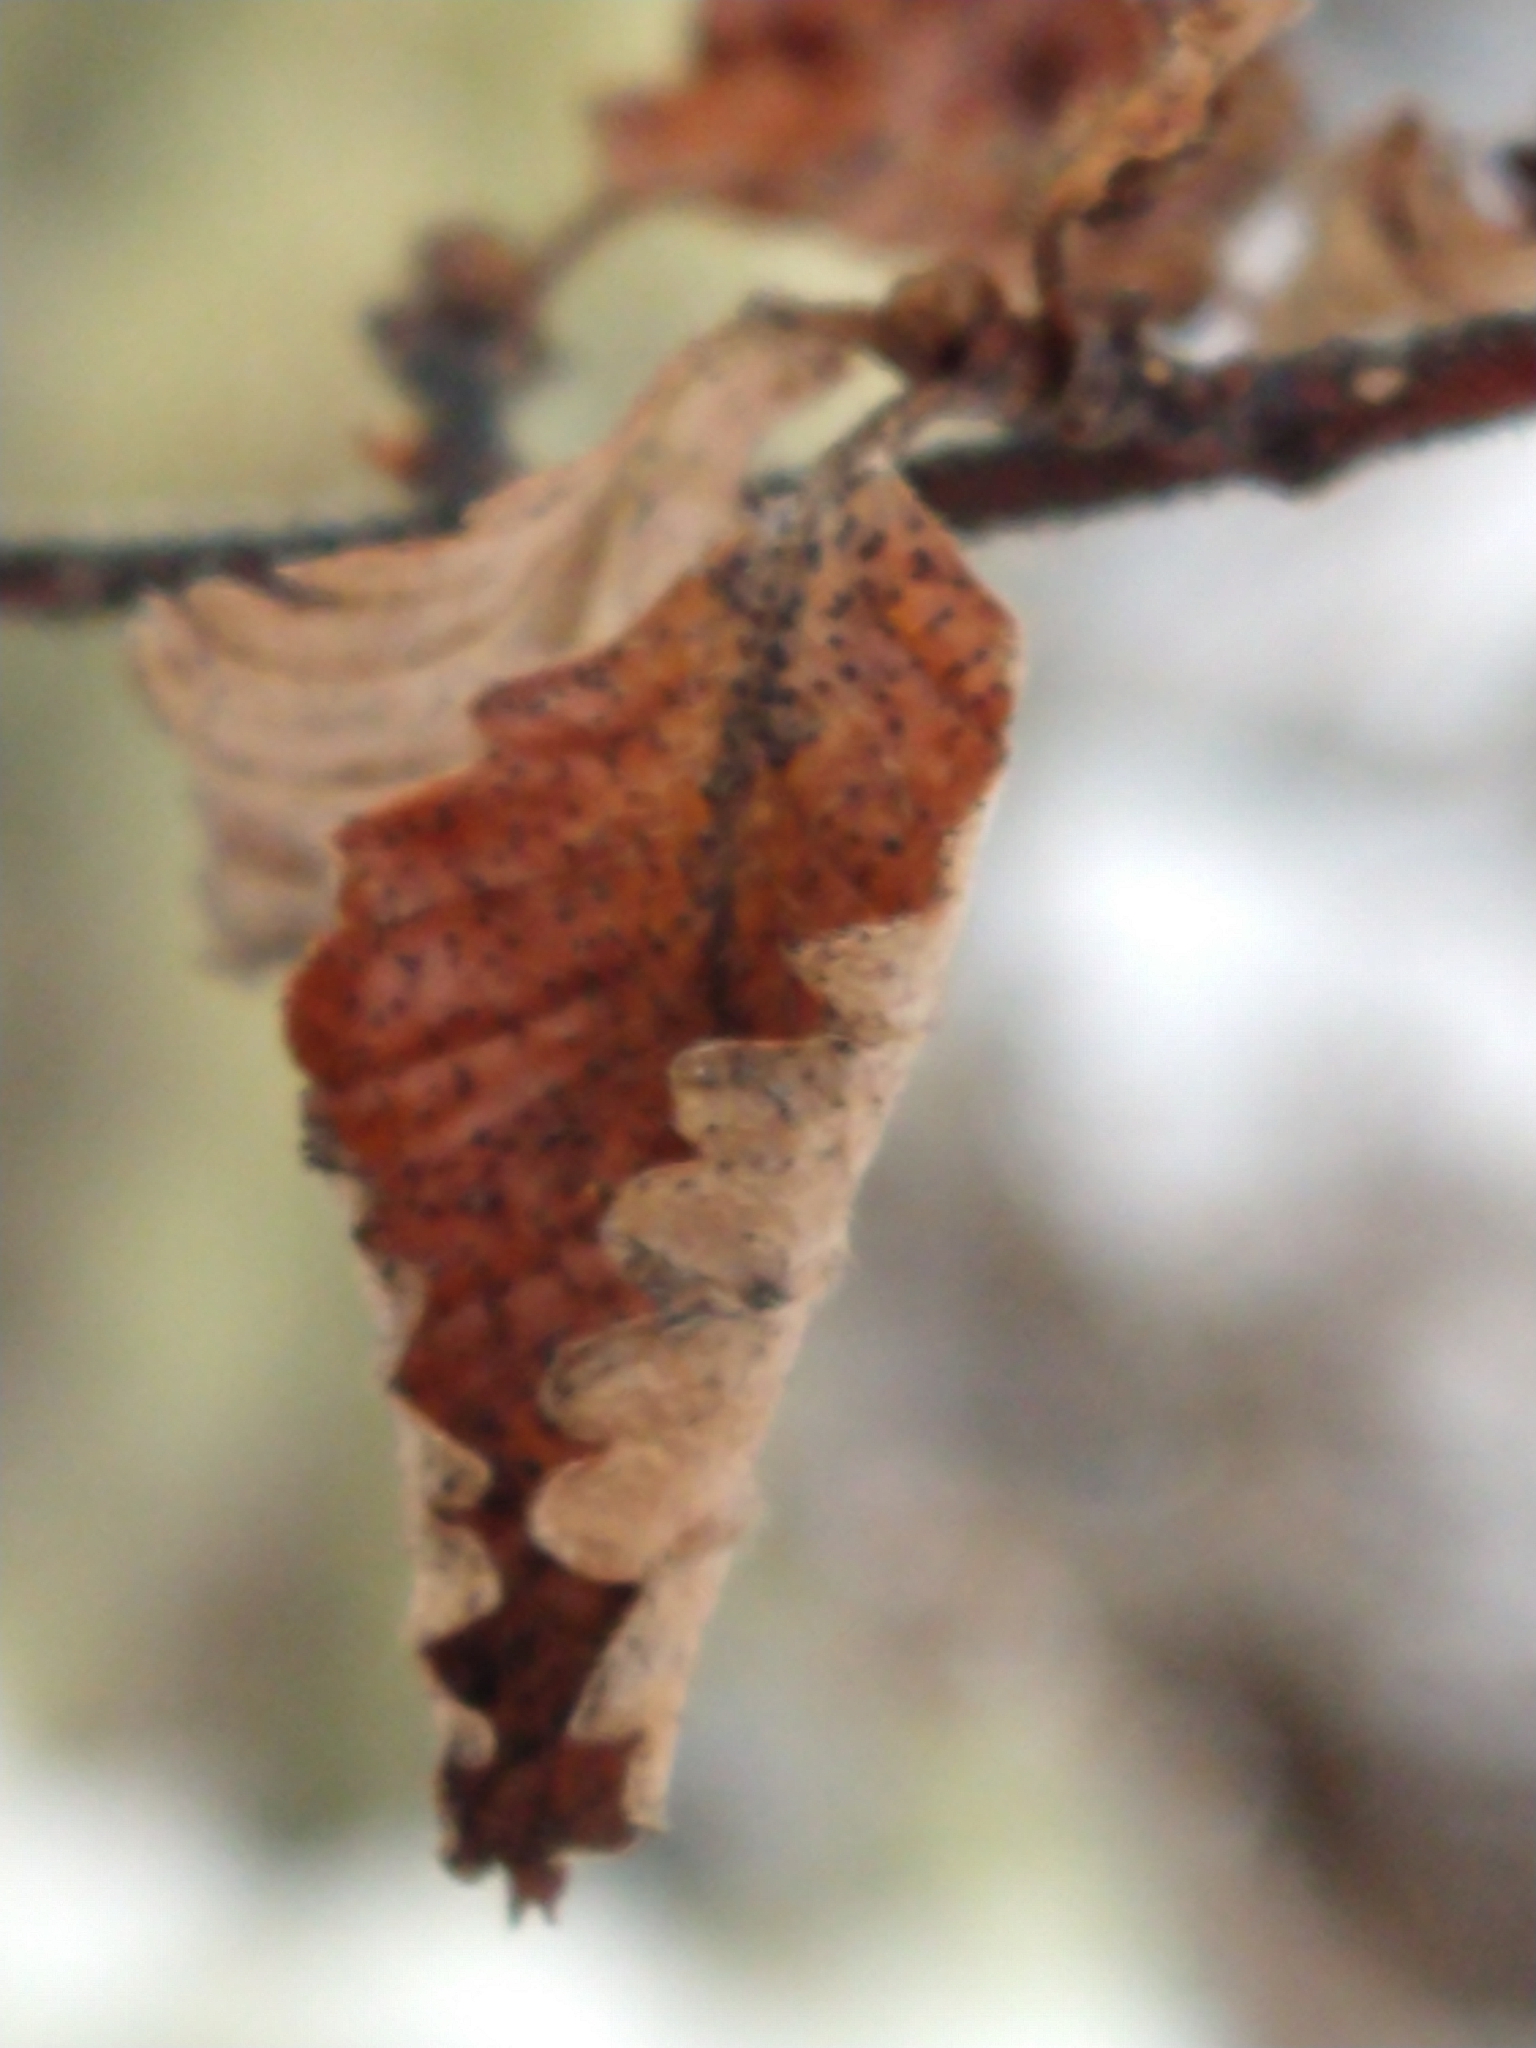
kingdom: Plantae
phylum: Tracheophyta
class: Magnoliopsida
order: Fagales
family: Nothofagaceae
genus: Nothofagus
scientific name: Nothofagus pumilio
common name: Lenga beech
